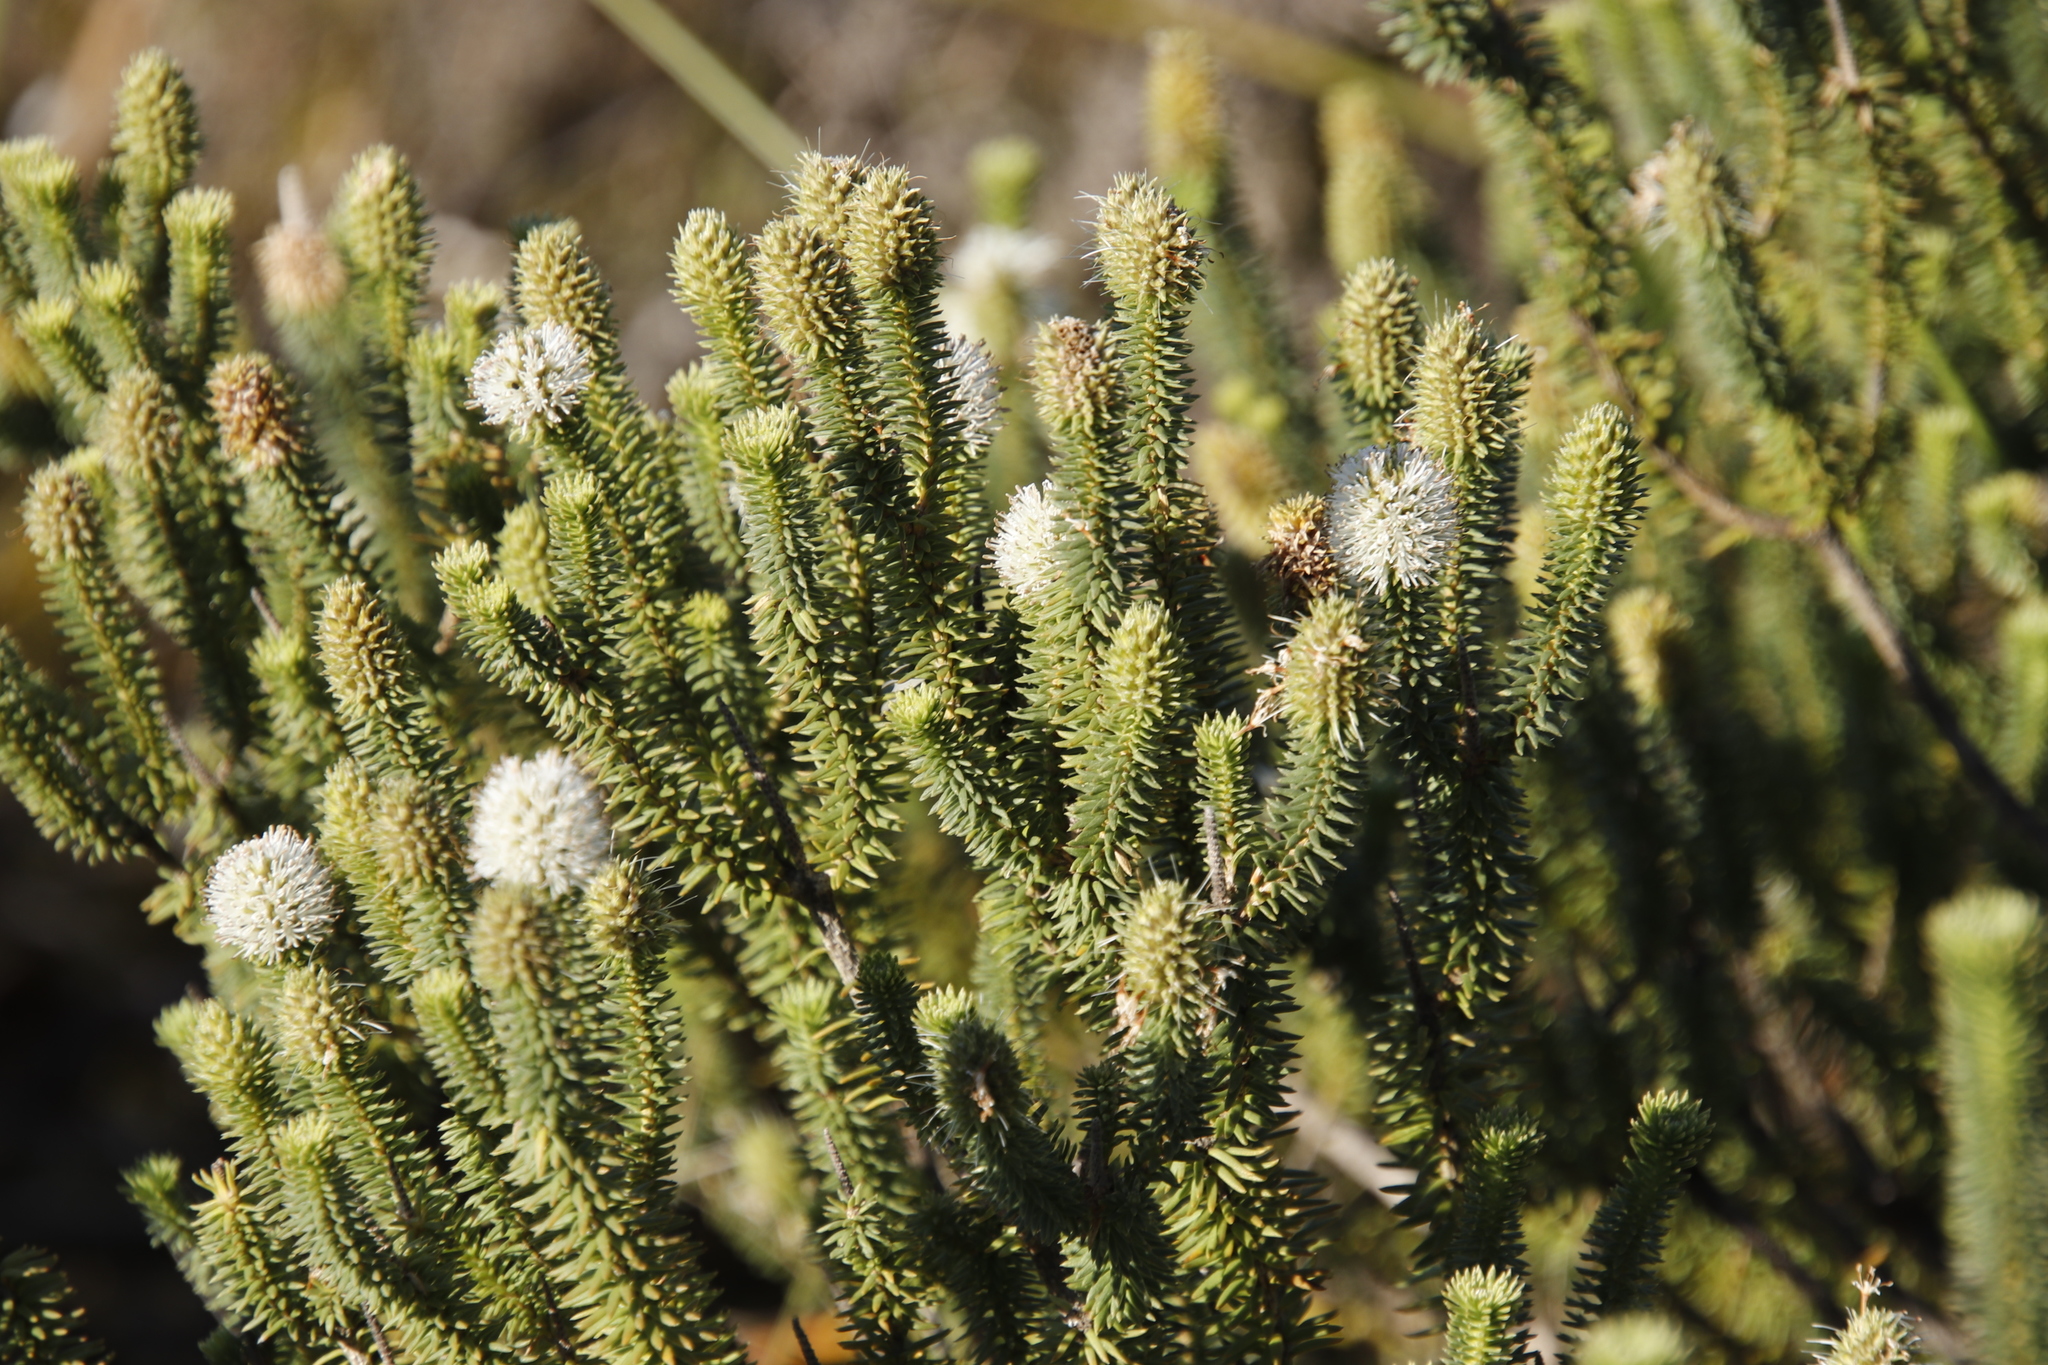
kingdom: Plantae
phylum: Tracheophyta
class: Magnoliopsida
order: Lamiales
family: Stilbaceae
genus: Stilbe
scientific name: Stilbe vestita
